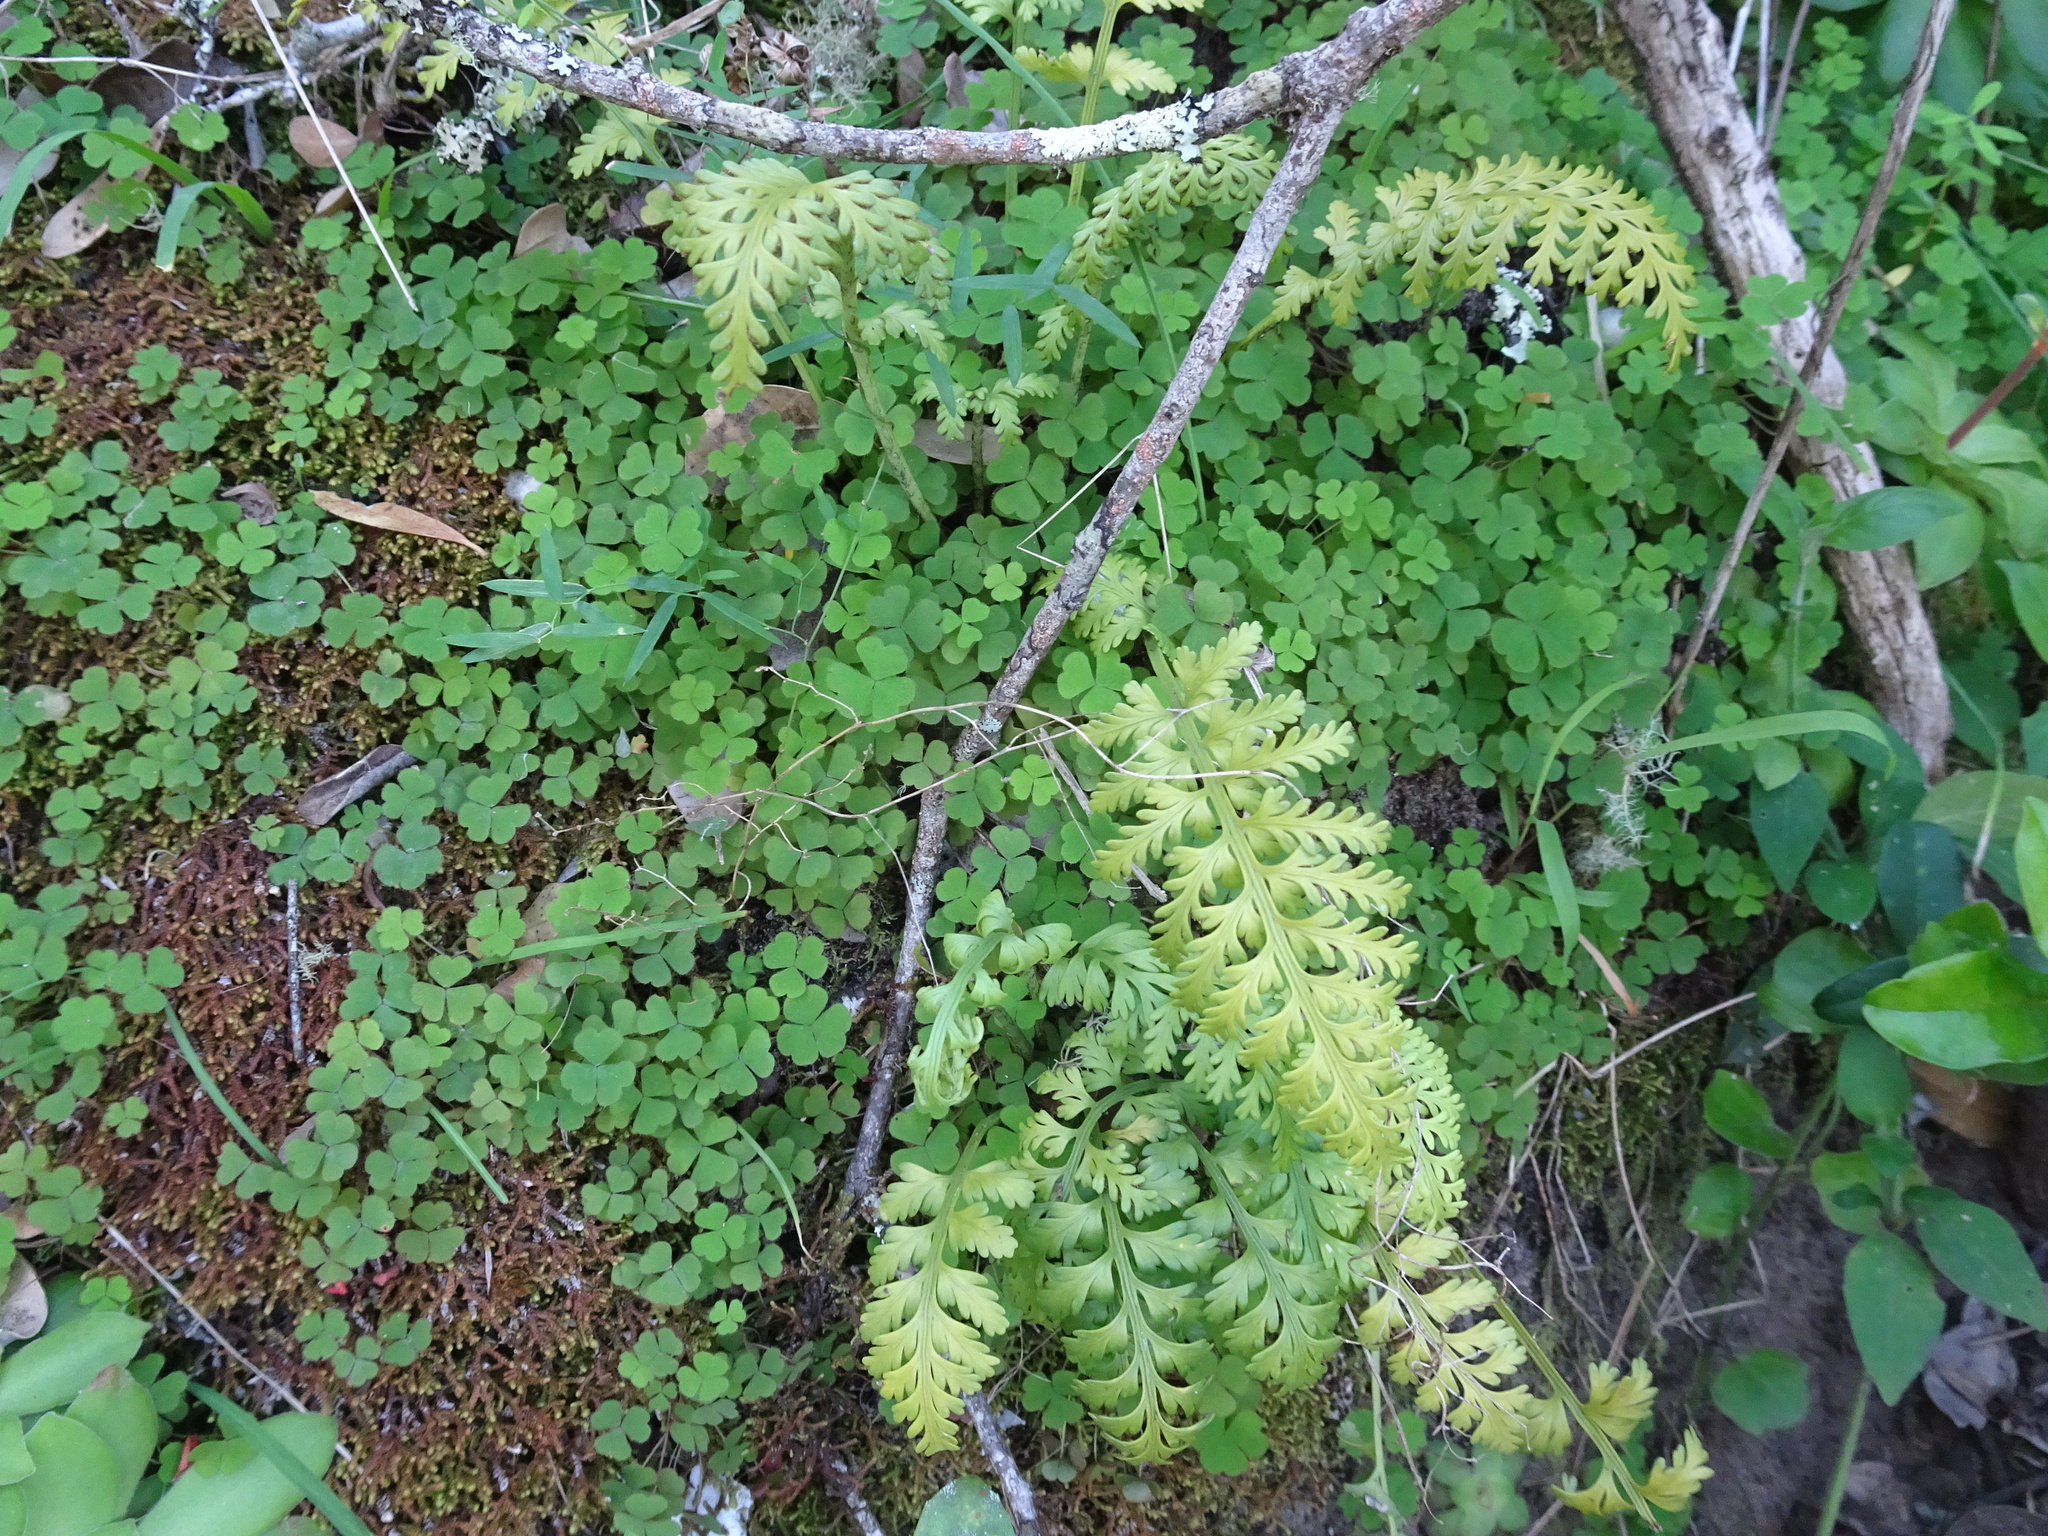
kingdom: Plantae
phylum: Tracheophyta
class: Polypodiopsida
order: Polypodiales
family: Aspleniaceae
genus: Asplenium
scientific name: Asplenium rutifolium
